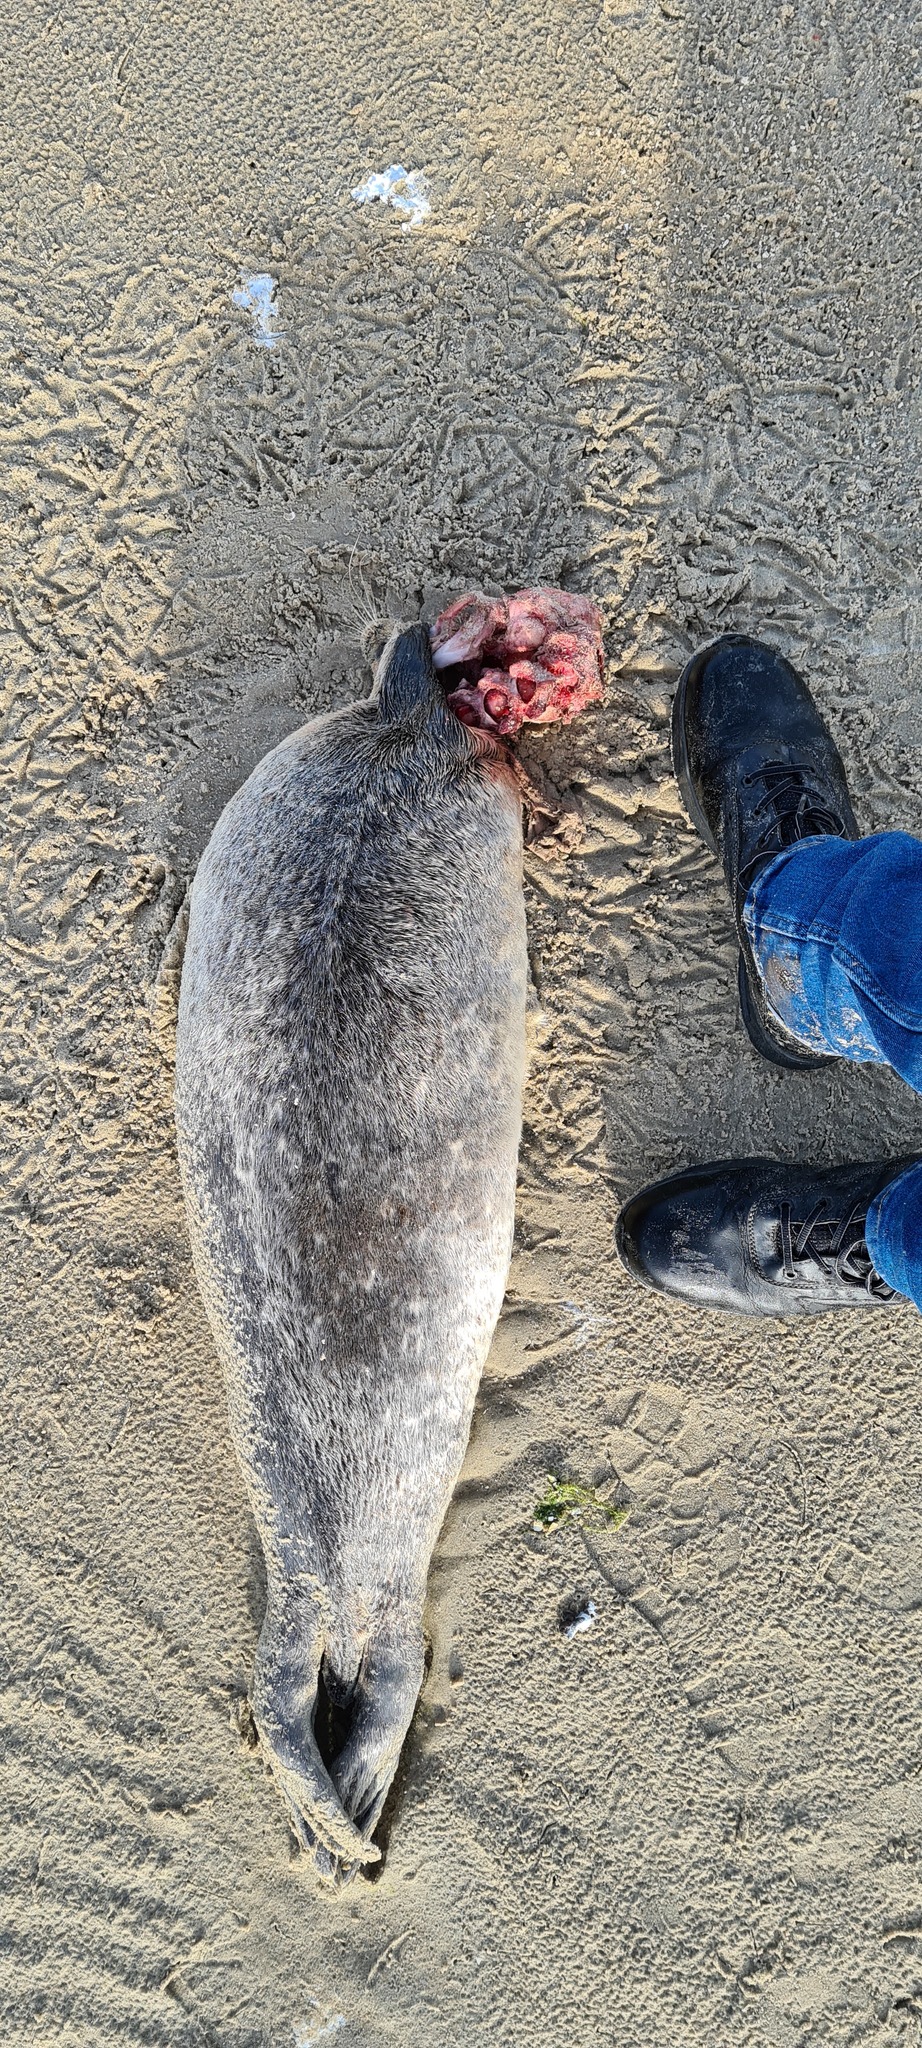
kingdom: Animalia
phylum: Chordata
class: Mammalia
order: Carnivora
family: Phocidae
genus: Phoca
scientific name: Phoca vitulina
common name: Harbor seal
